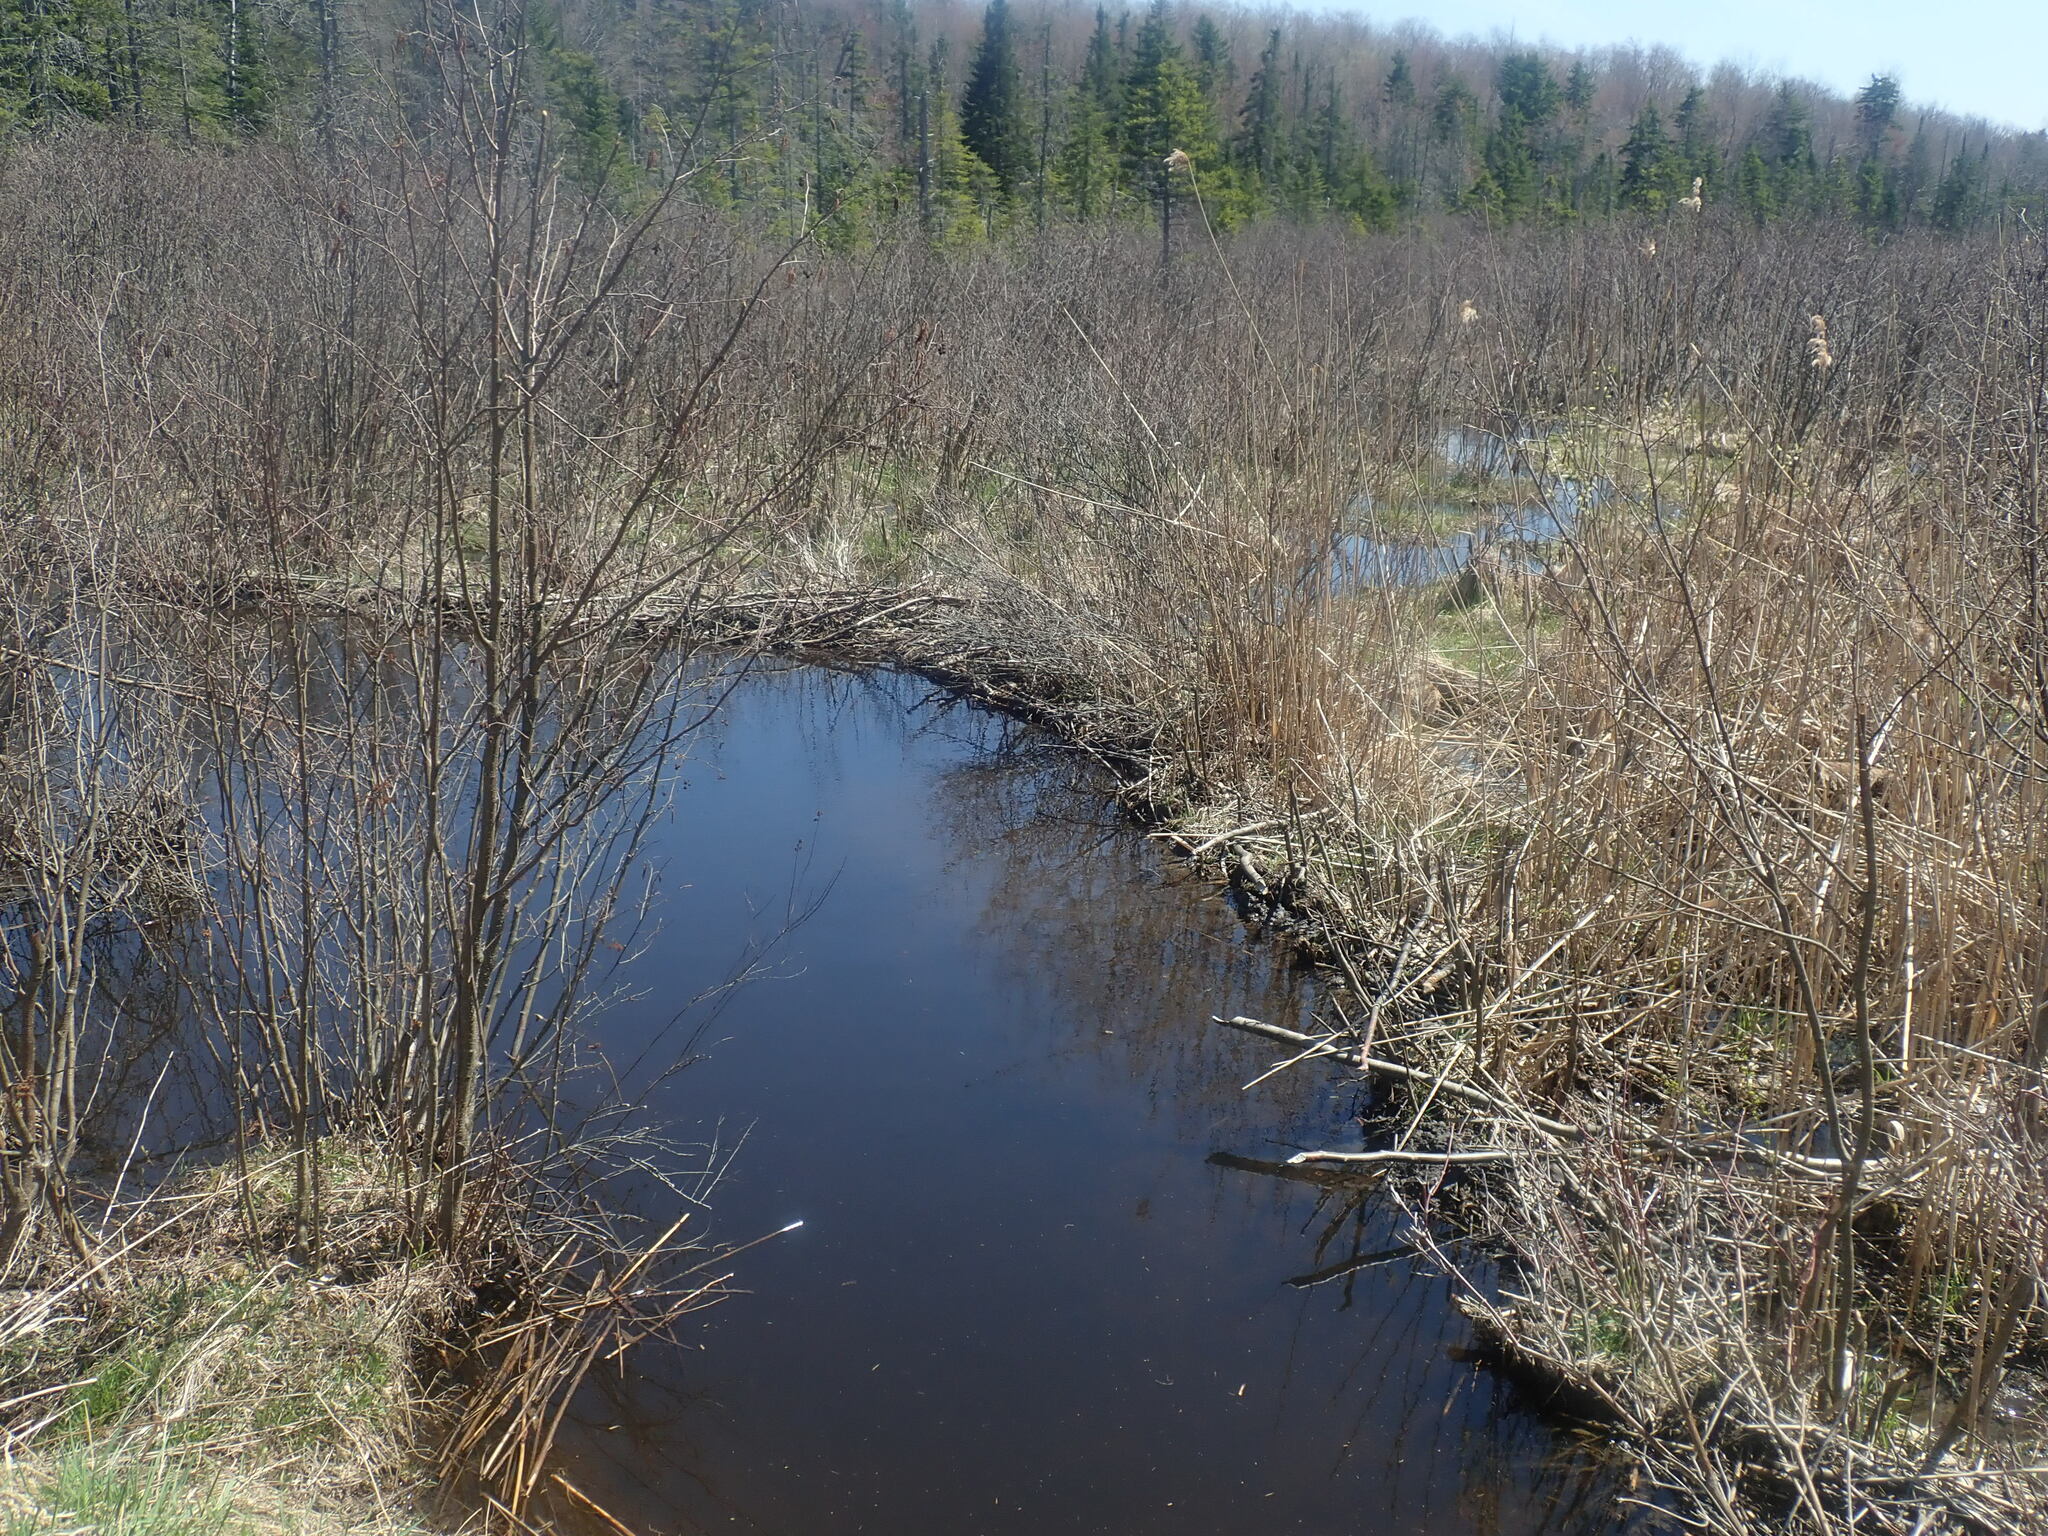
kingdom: Animalia
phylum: Chordata
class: Mammalia
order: Rodentia
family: Castoridae
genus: Castor
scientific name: Castor canadensis
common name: American beaver
